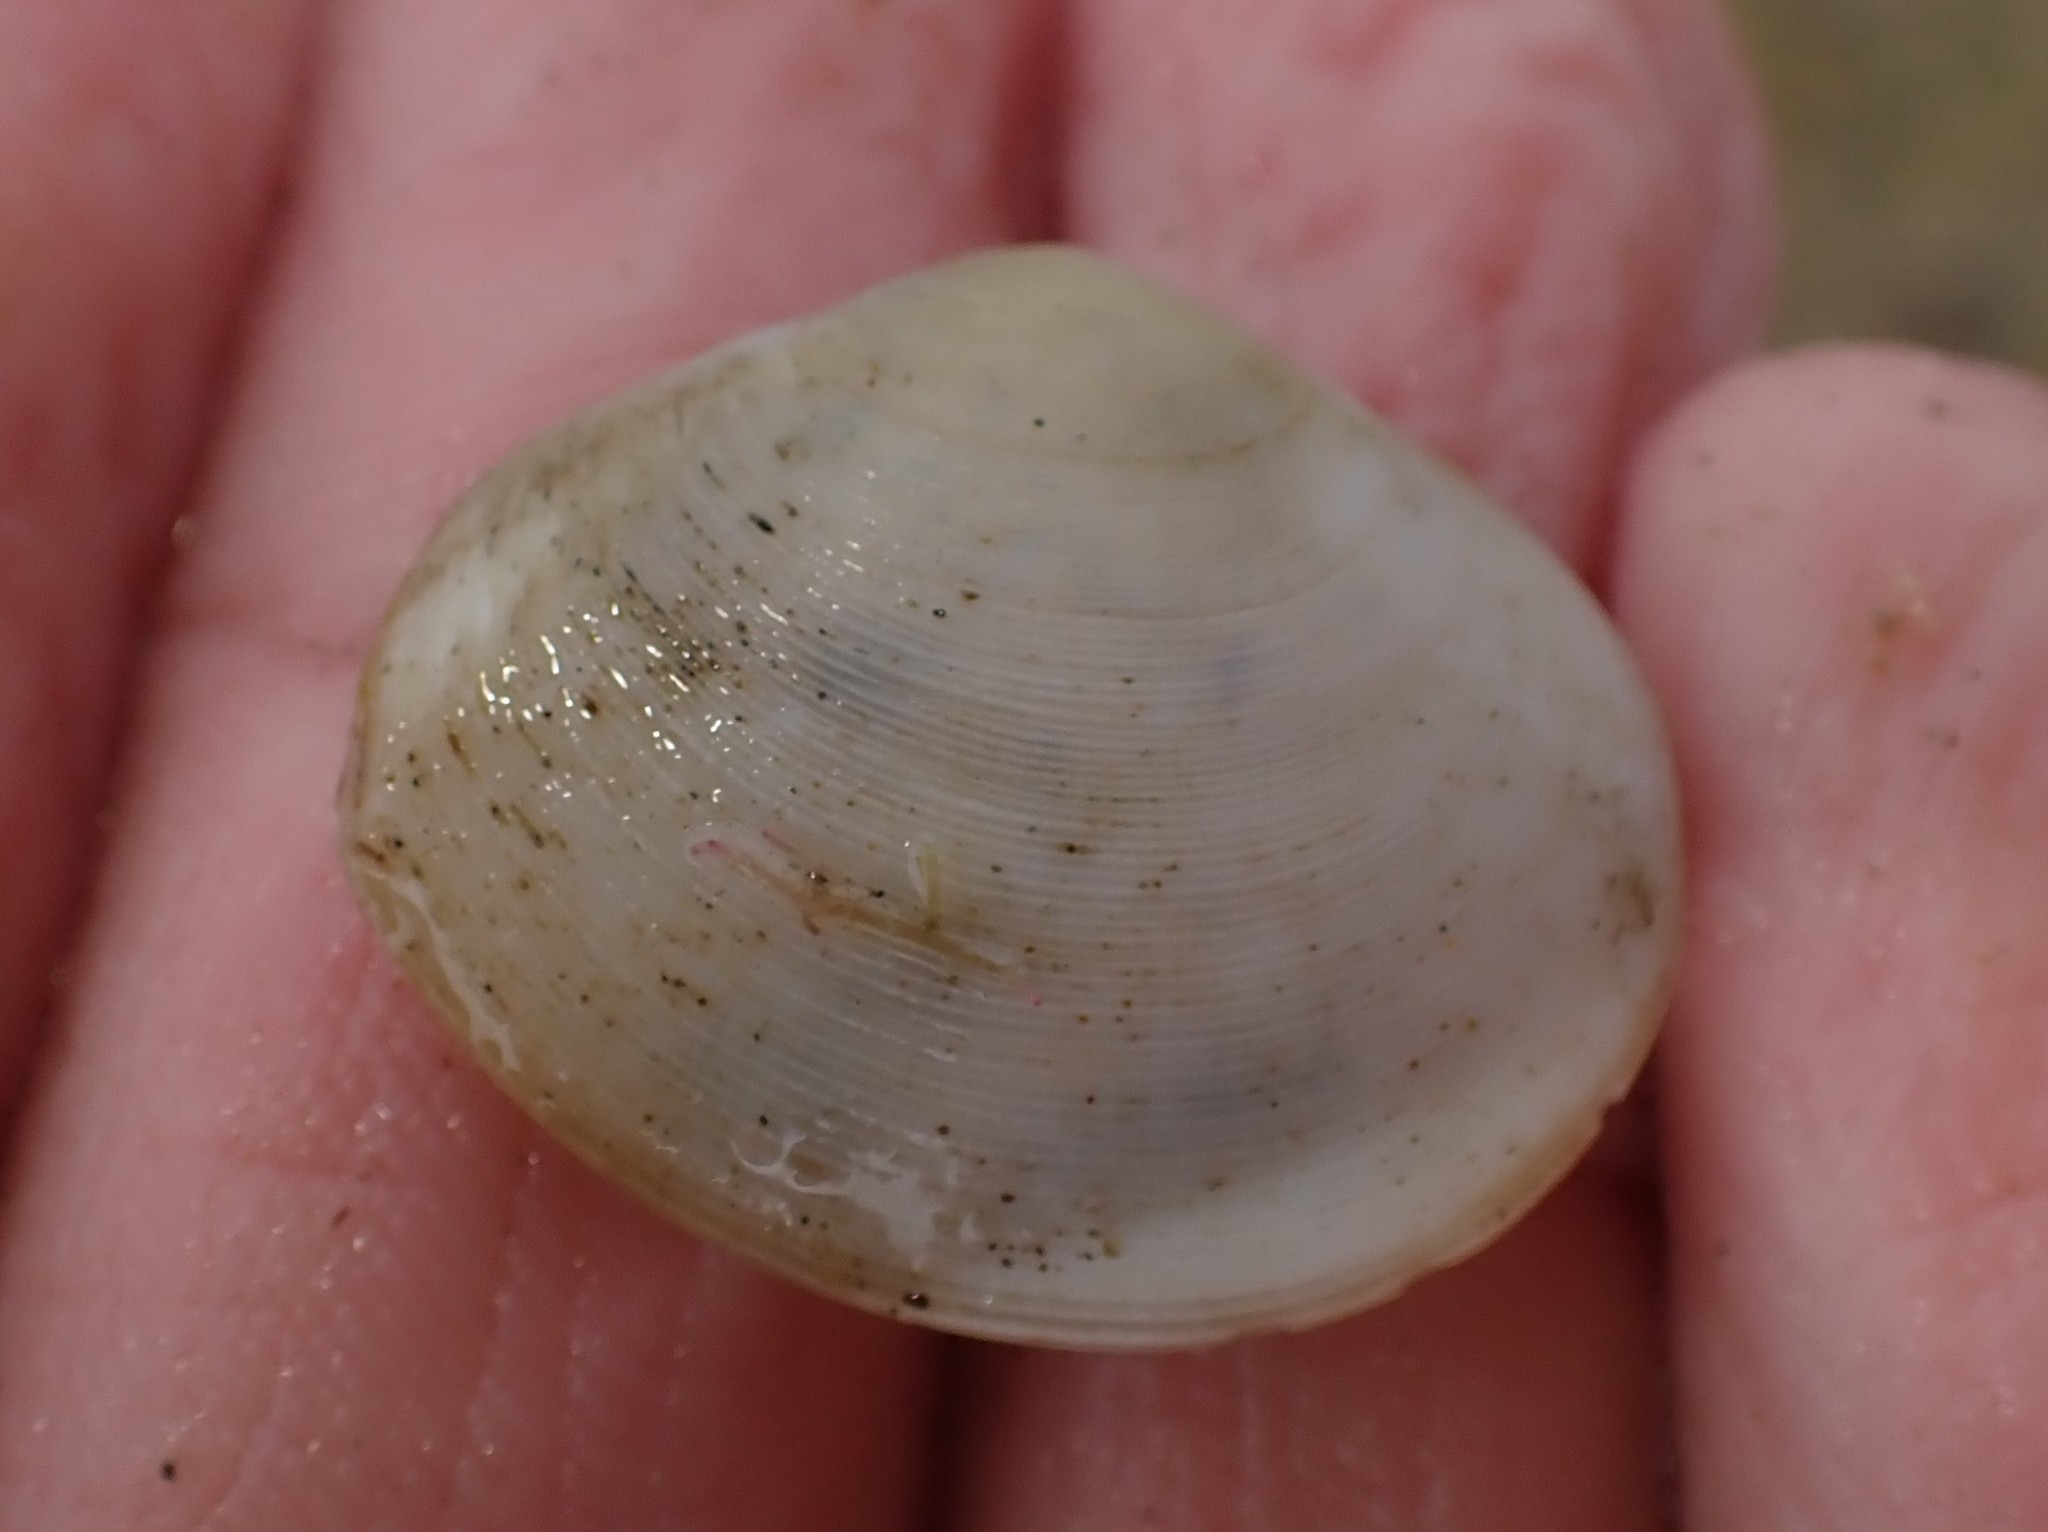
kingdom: Animalia
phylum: Mollusca
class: Bivalvia
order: Cardiida
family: Tellinidae
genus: Pseudarcopagia
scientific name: Pseudarcopagia disculus
